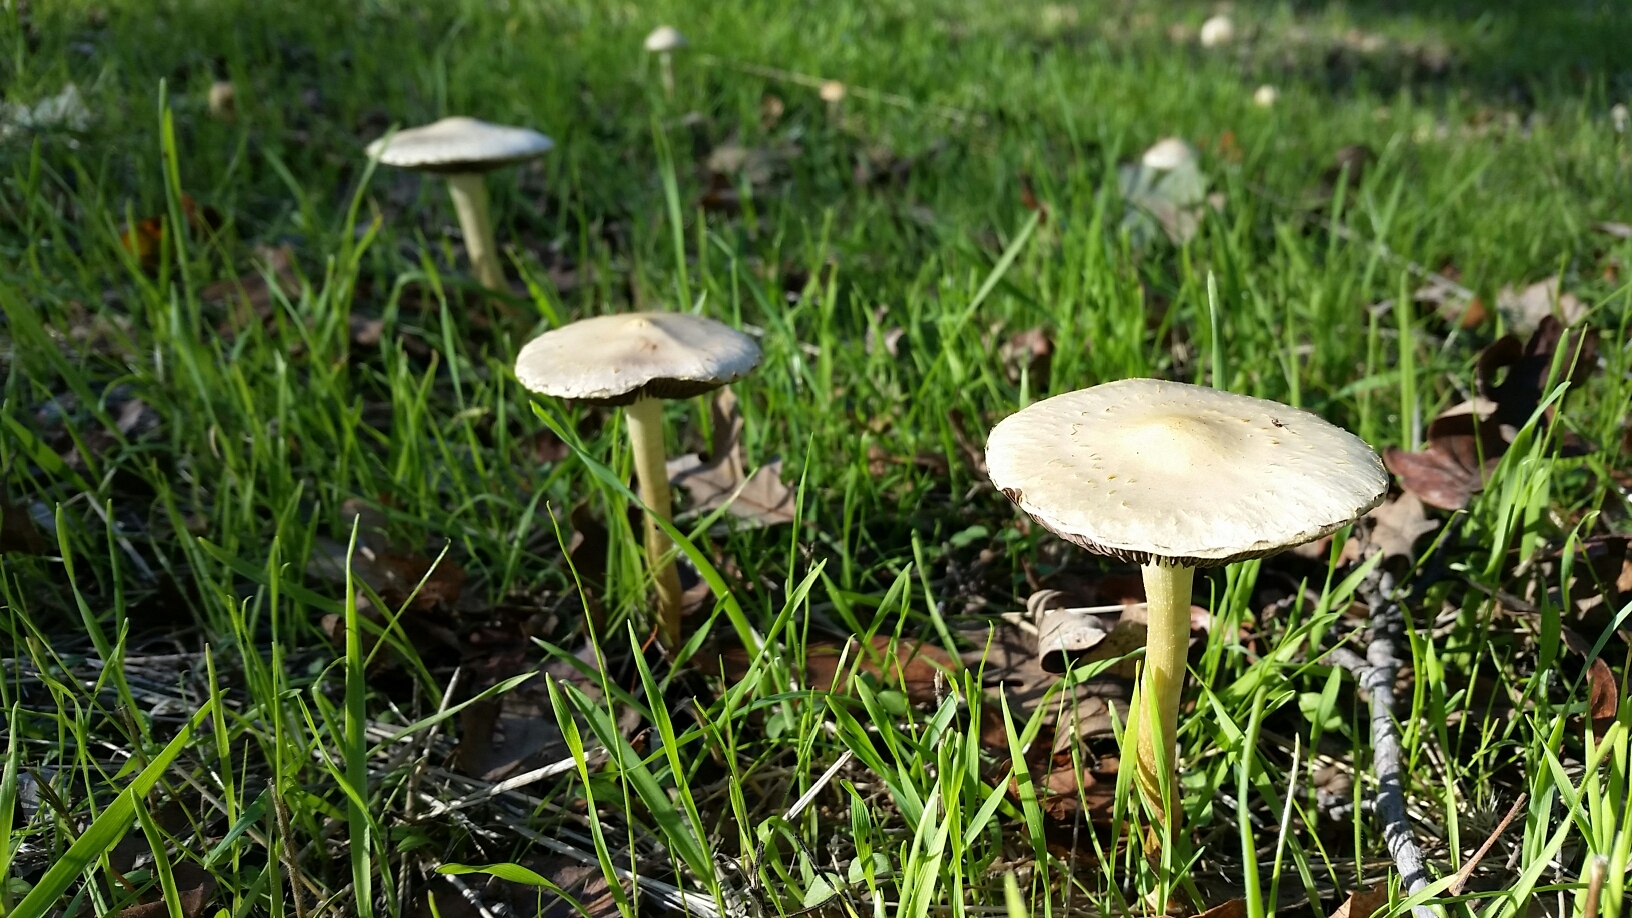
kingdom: Fungi
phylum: Basidiomycota
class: Agaricomycetes
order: Agaricales
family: Strophariaceae
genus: Leratiomyces
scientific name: Leratiomyces percevalii
